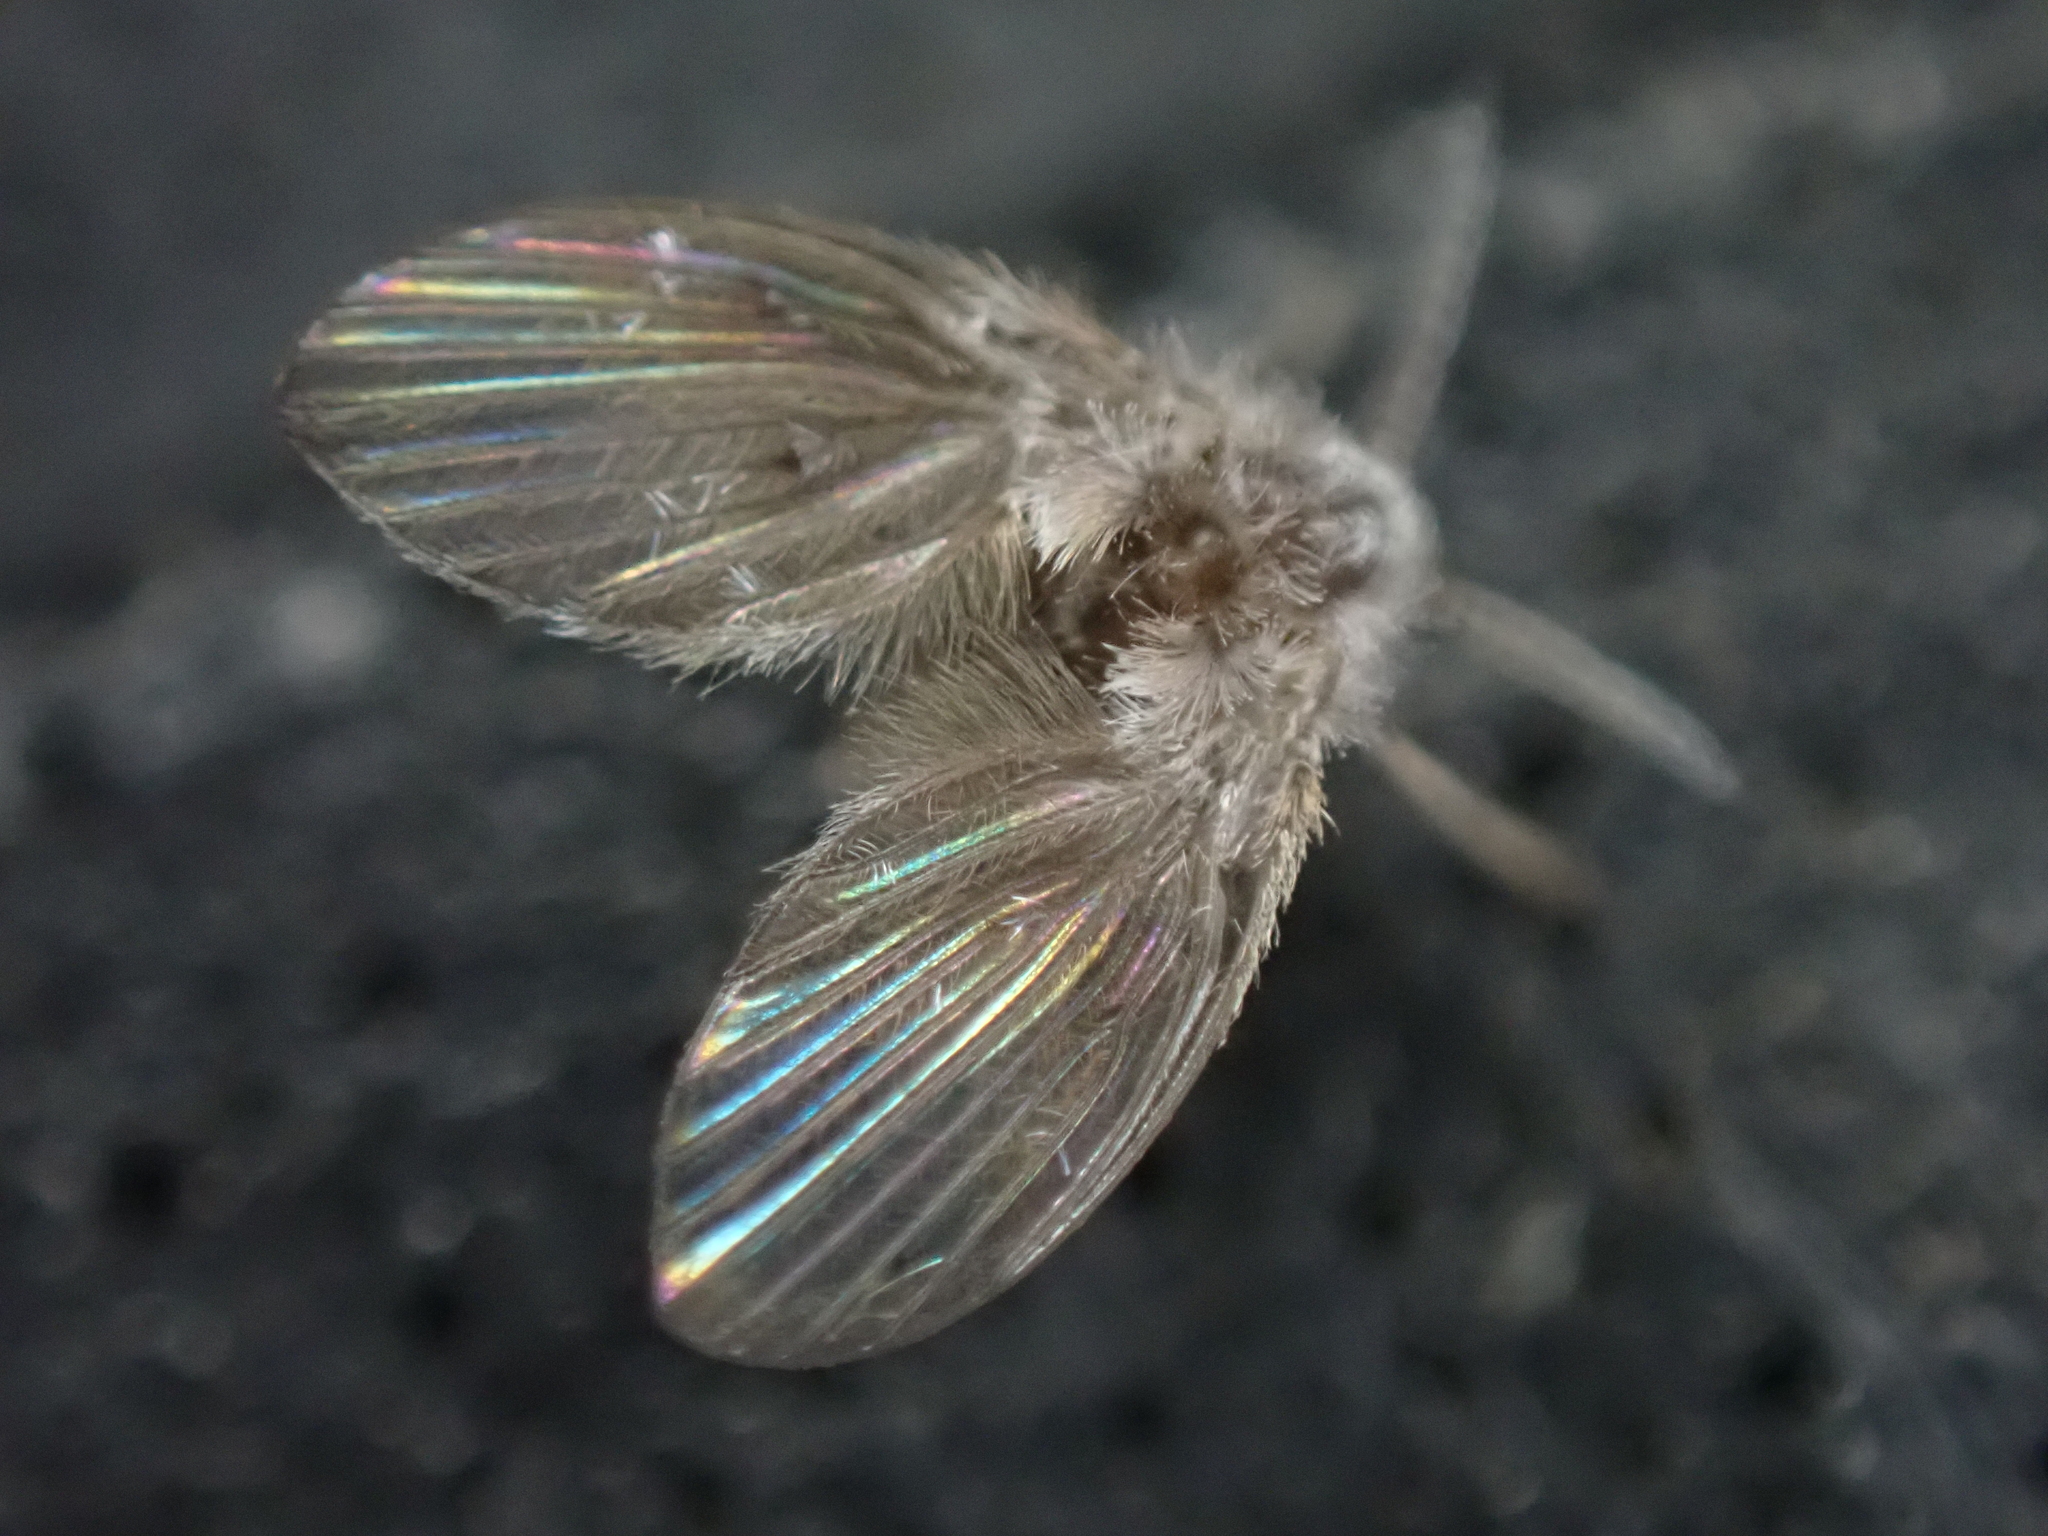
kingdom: Animalia
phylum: Arthropoda
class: Insecta
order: Diptera
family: Psychodidae
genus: Clogmia
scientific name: Clogmia albipunctatus
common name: White-spotted moth fly
